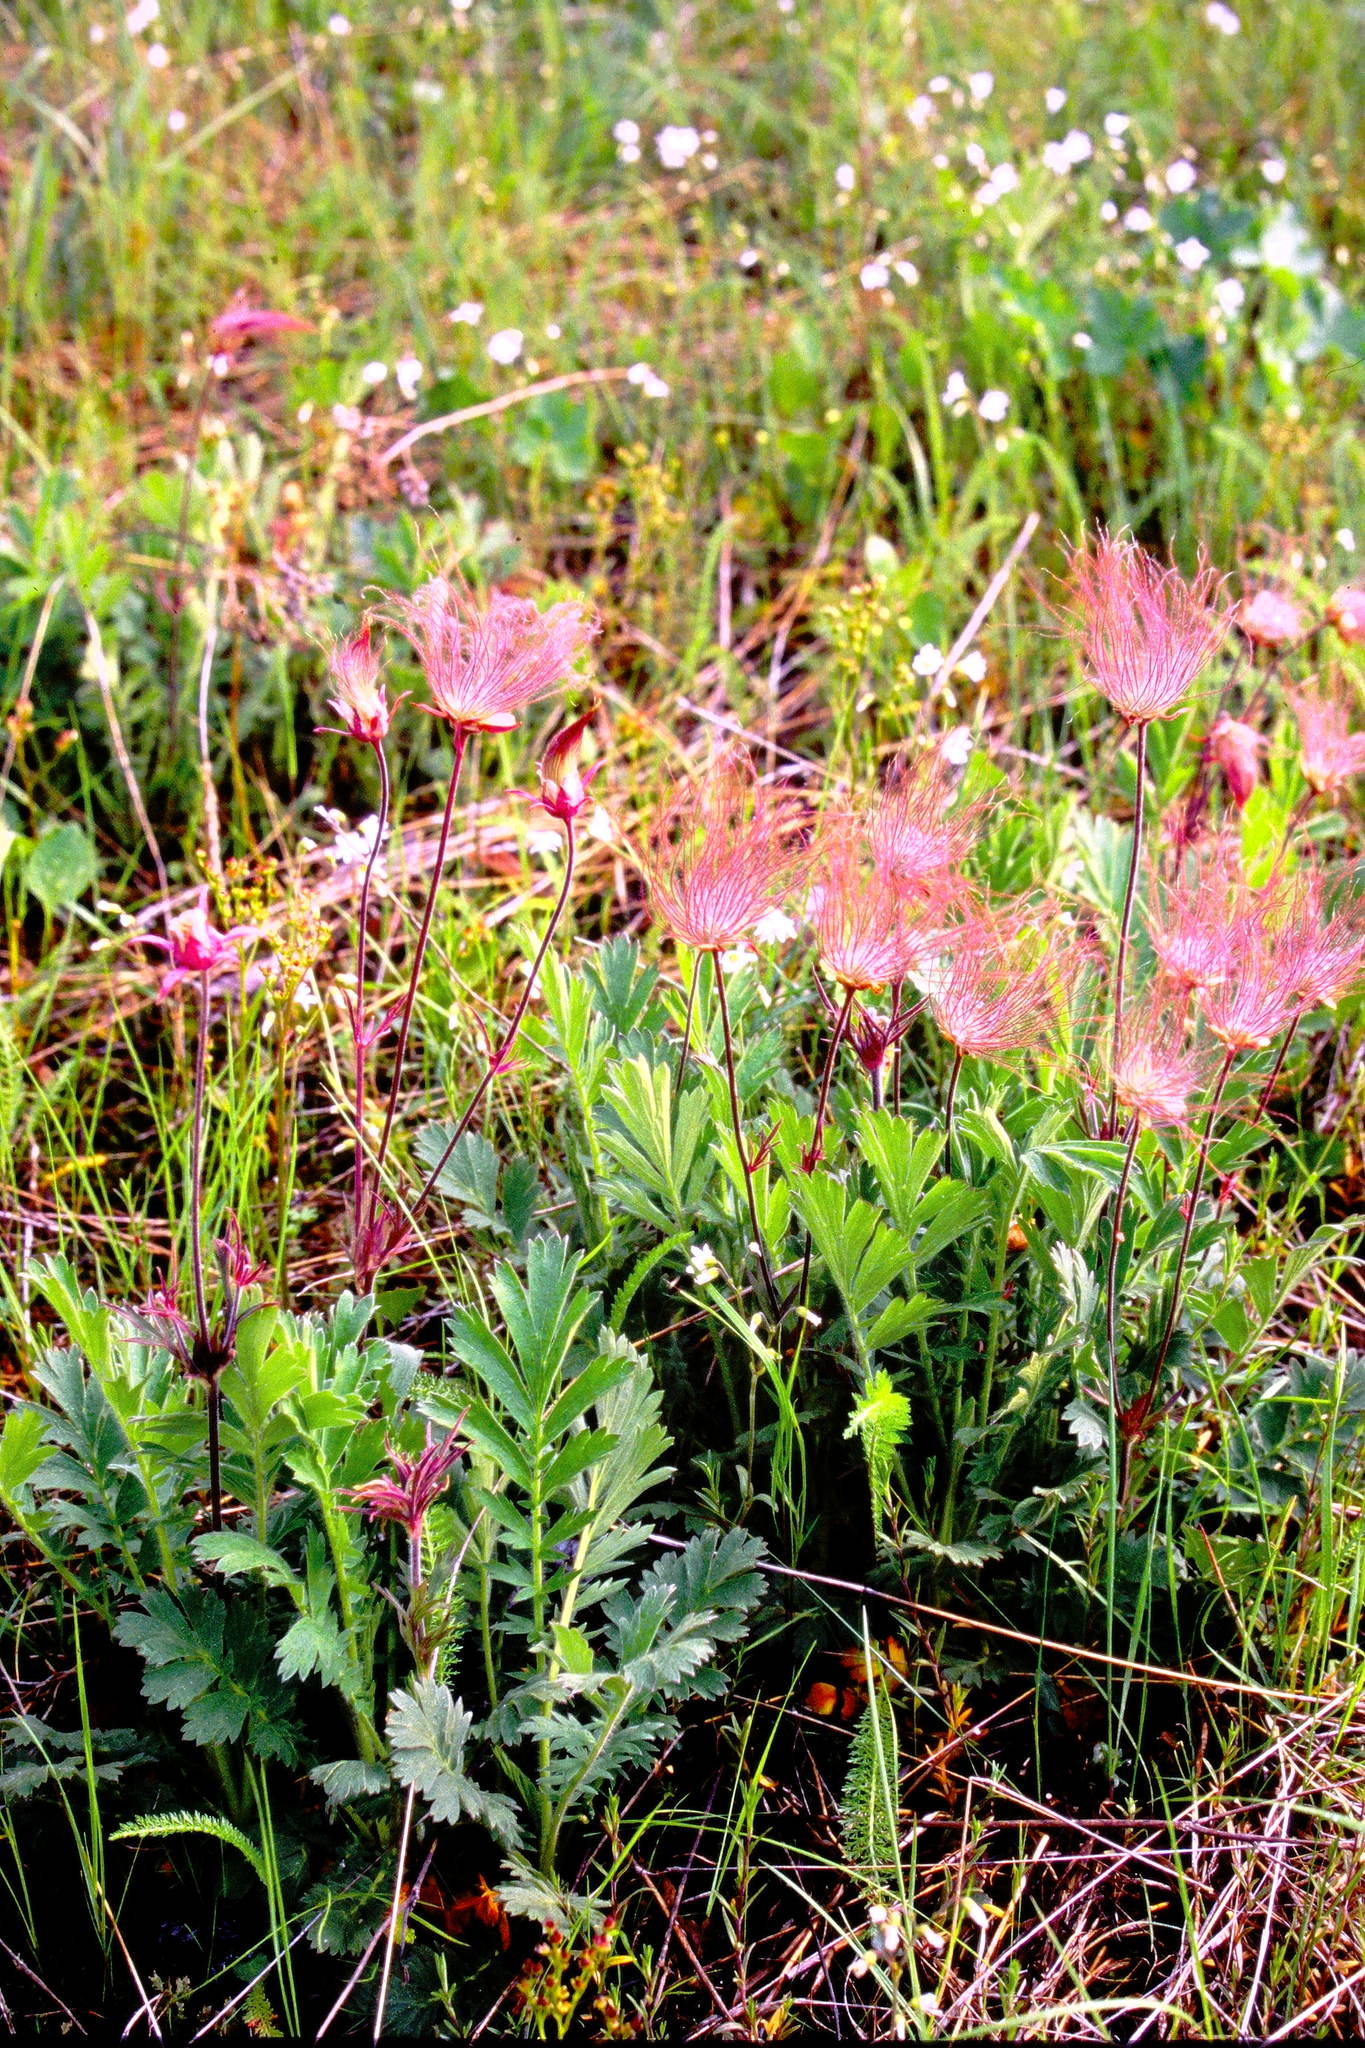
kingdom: Plantae
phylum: Tracheophyta
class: Magnoliopsida
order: Rosales
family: Rosaceae
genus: Geum
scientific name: Geum triflorum
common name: Old man's whiskers
